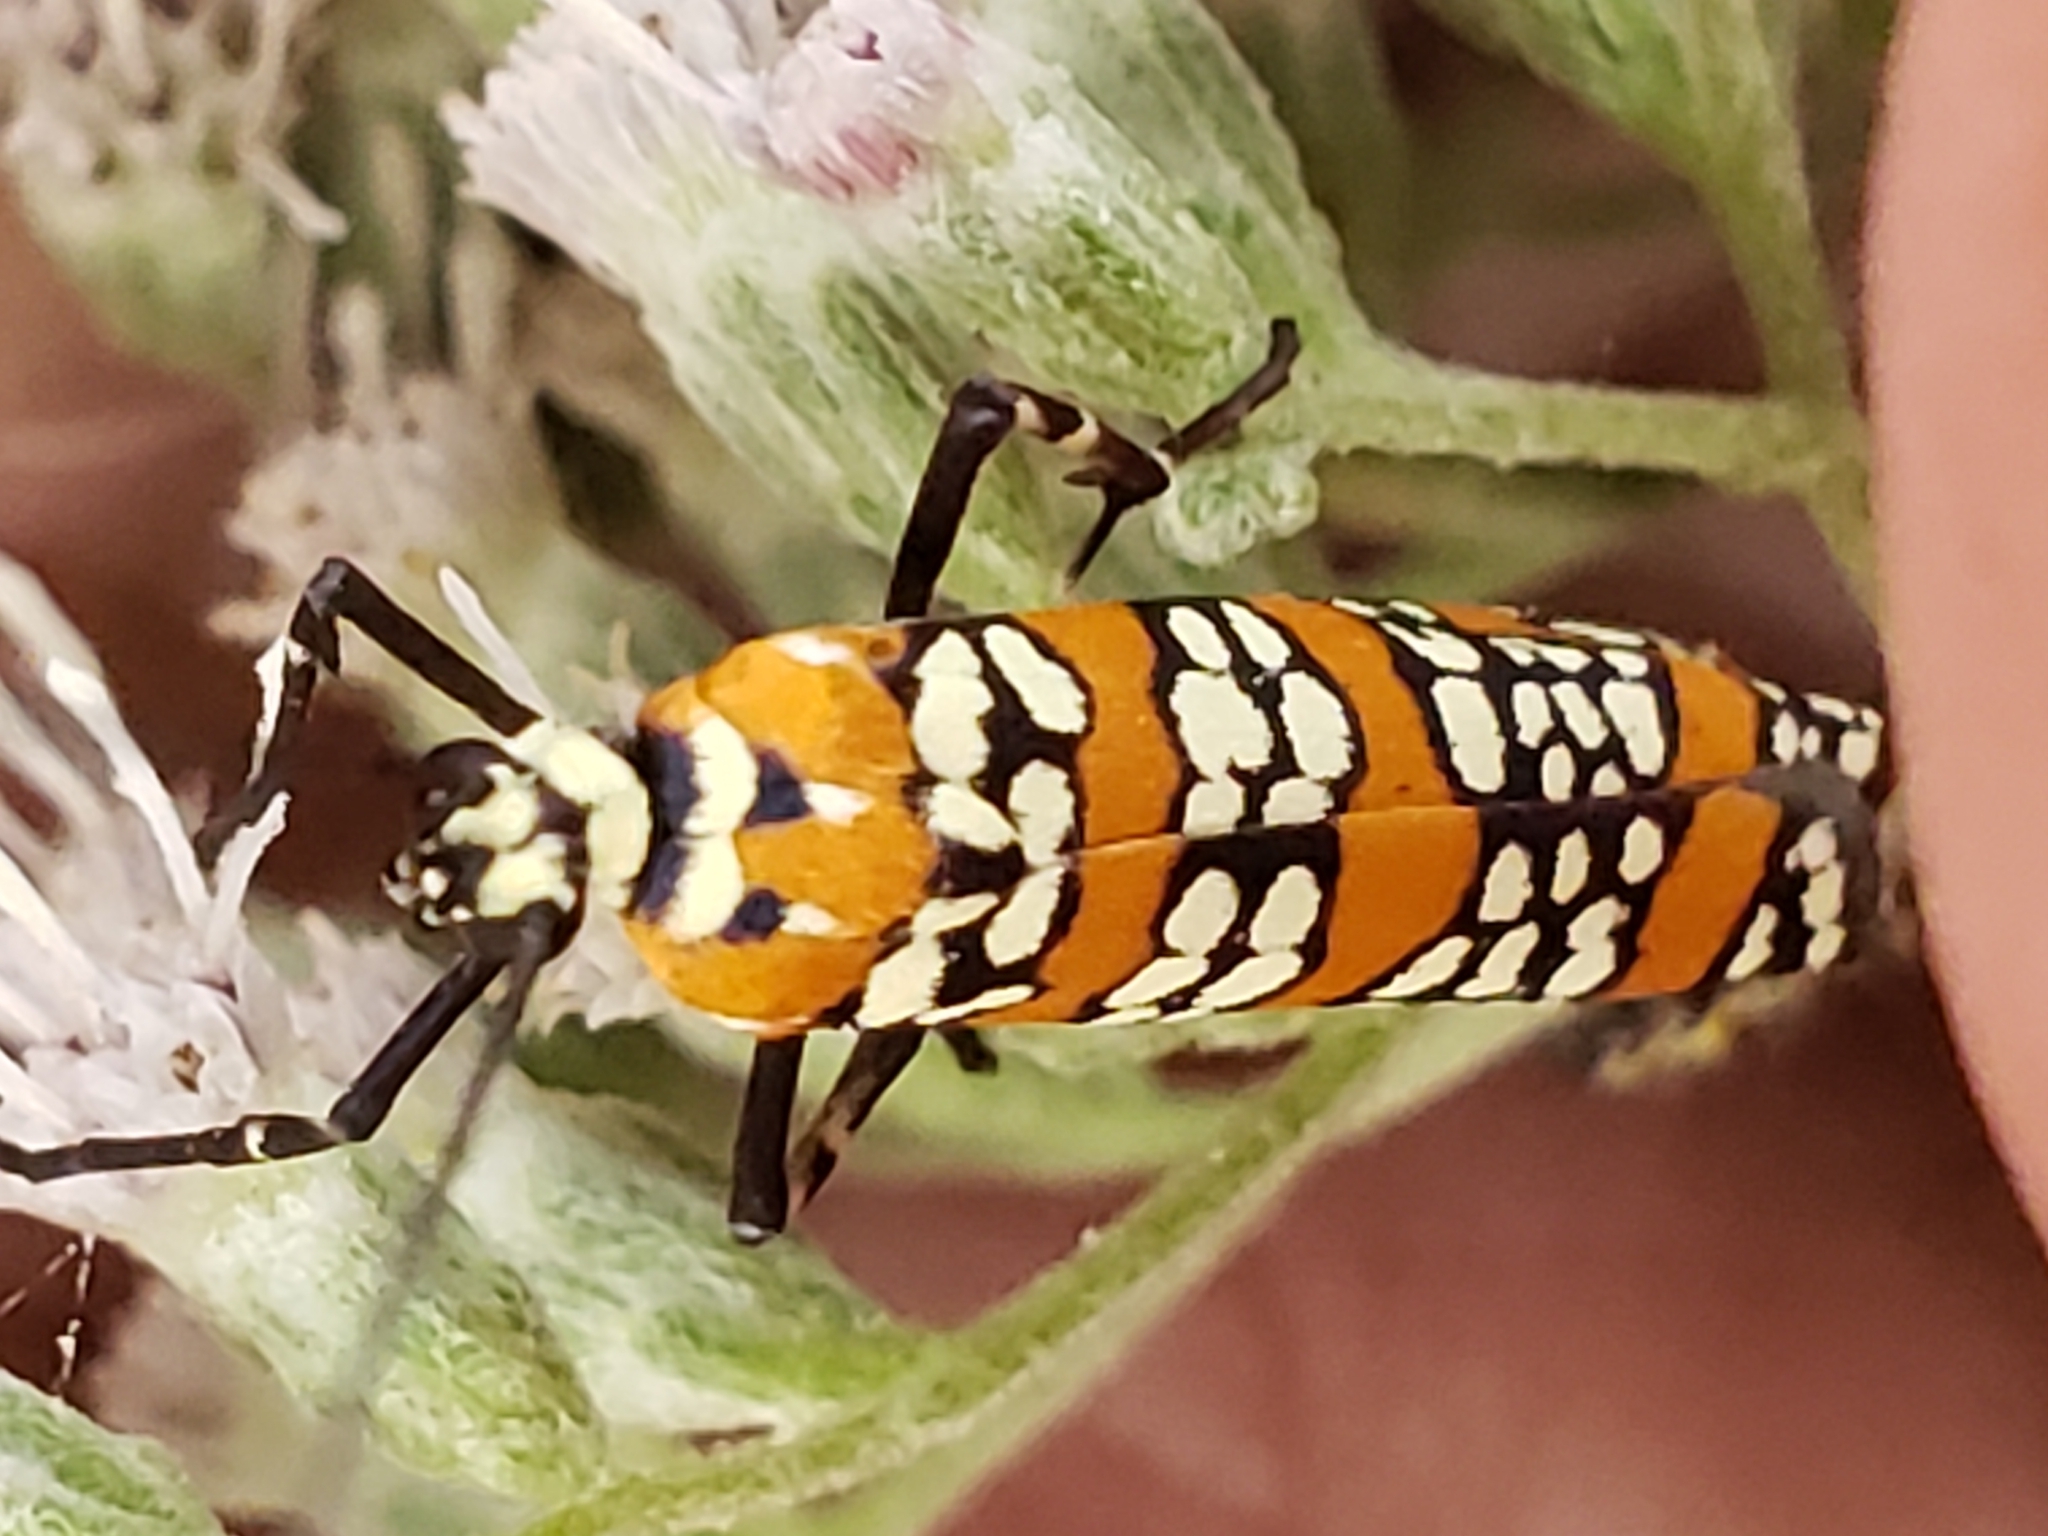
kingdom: Animalia
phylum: Arthropoda
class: Insecta
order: Lepidoptera
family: Attevidae
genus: Atteva
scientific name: Atteva punctella
